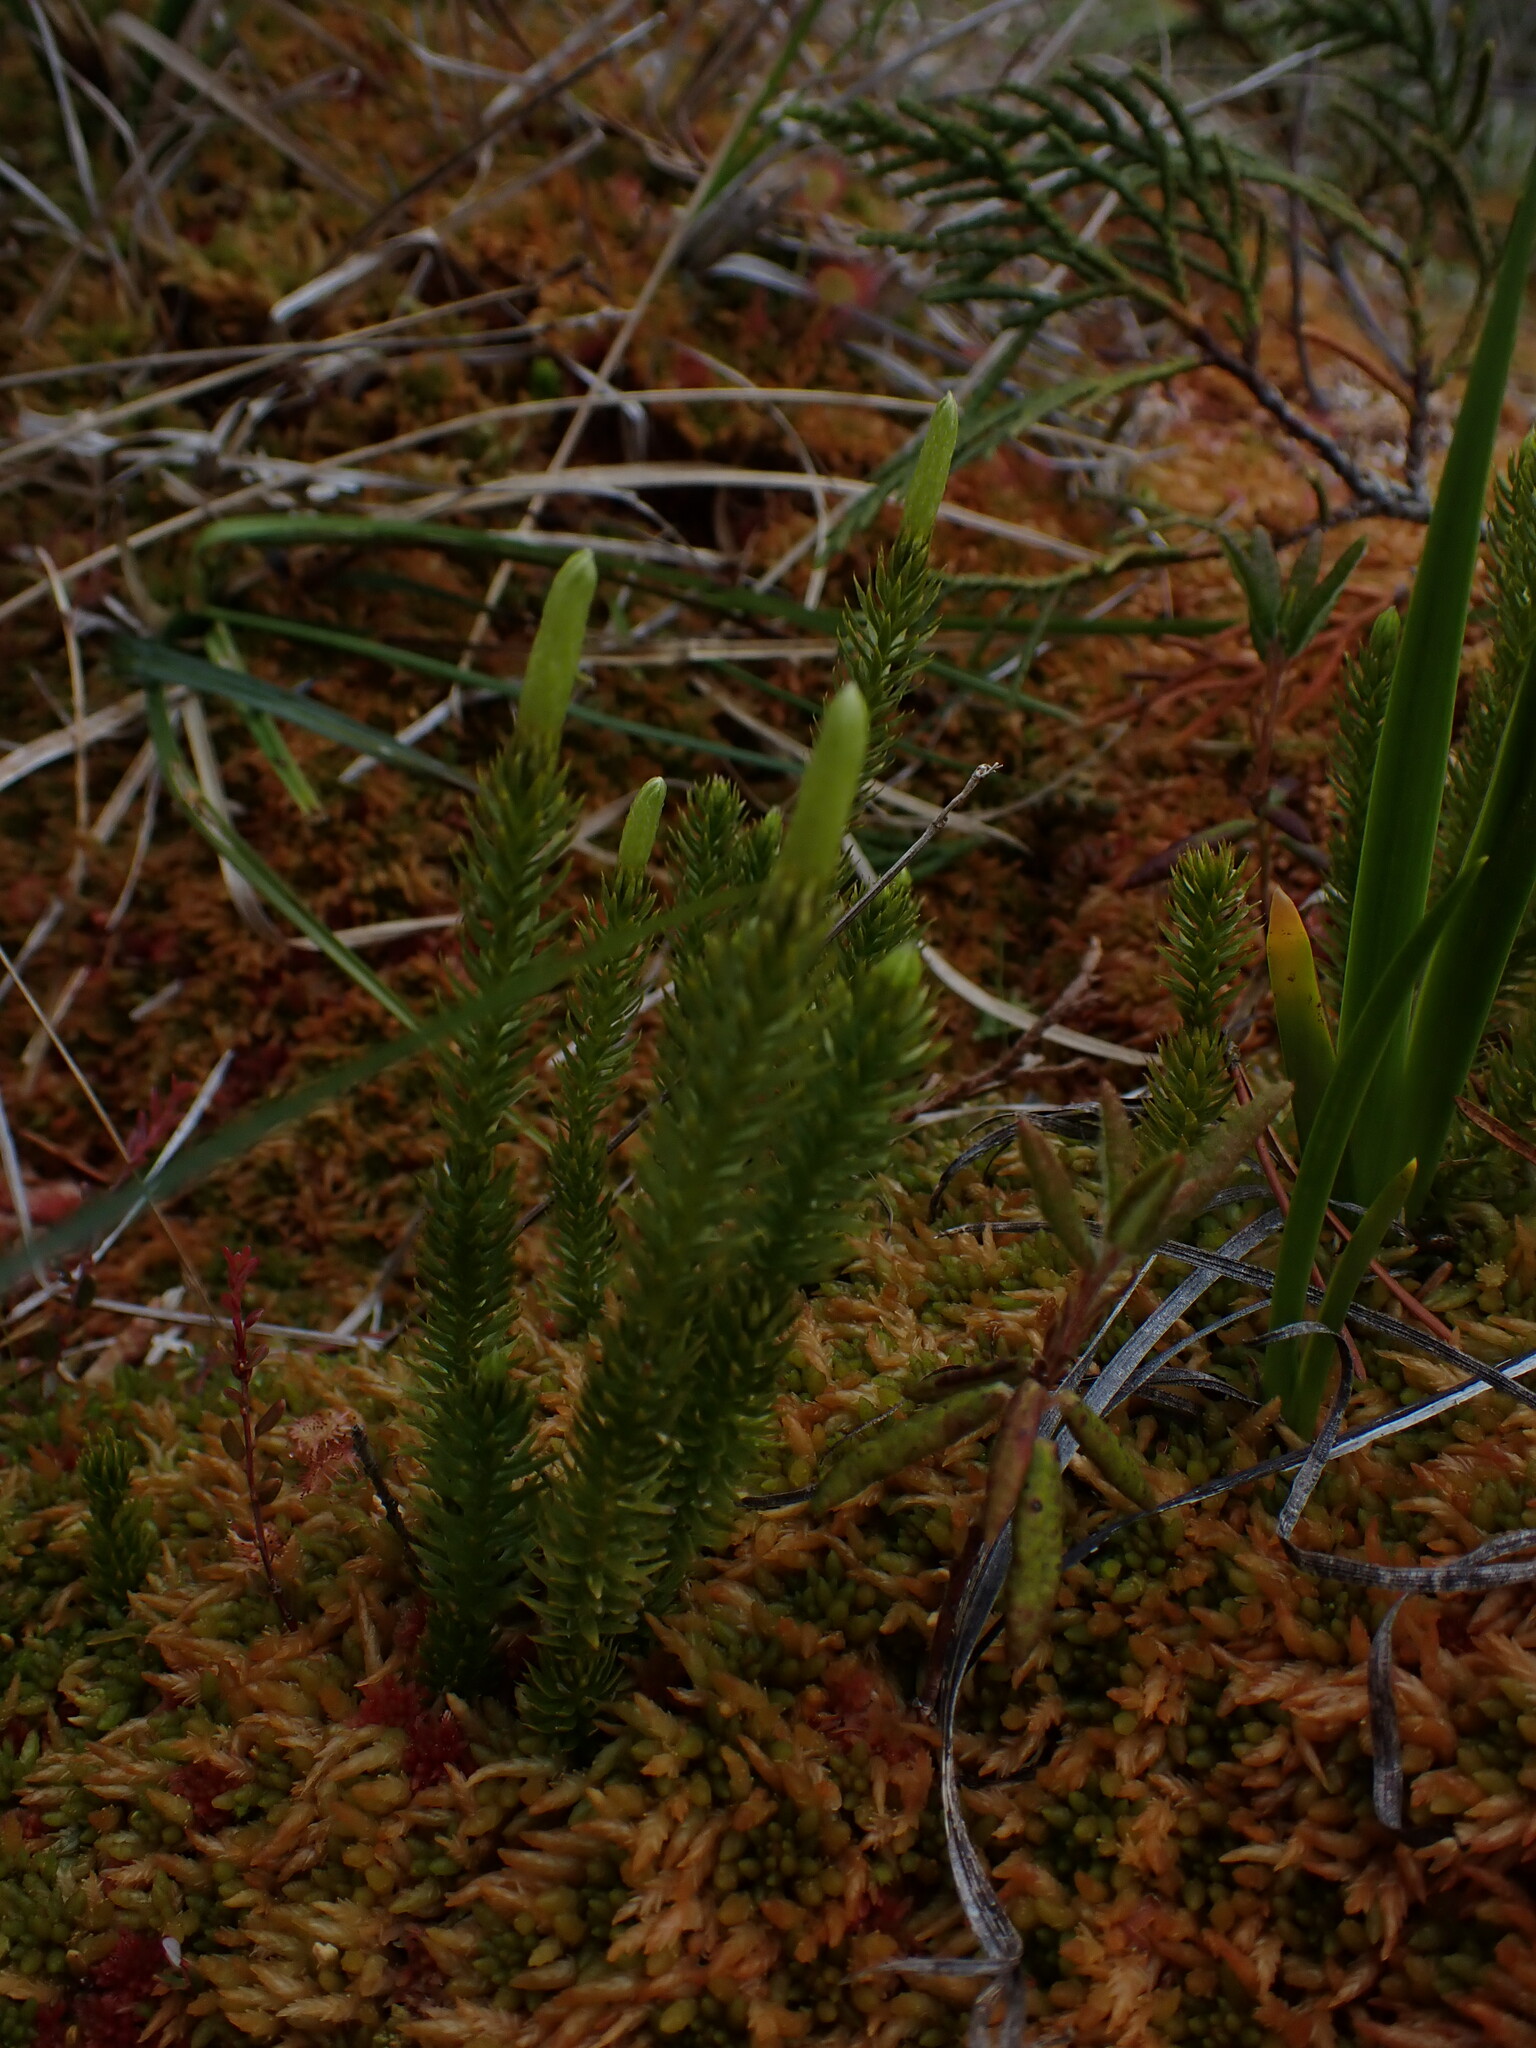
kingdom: Plantae
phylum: Tracheophyta
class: Lycopodiopsida
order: Lycopodiales
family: Lycopodiaceae
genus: Spinulum
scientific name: Spinulum annotinum
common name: Interrupted club-moss
